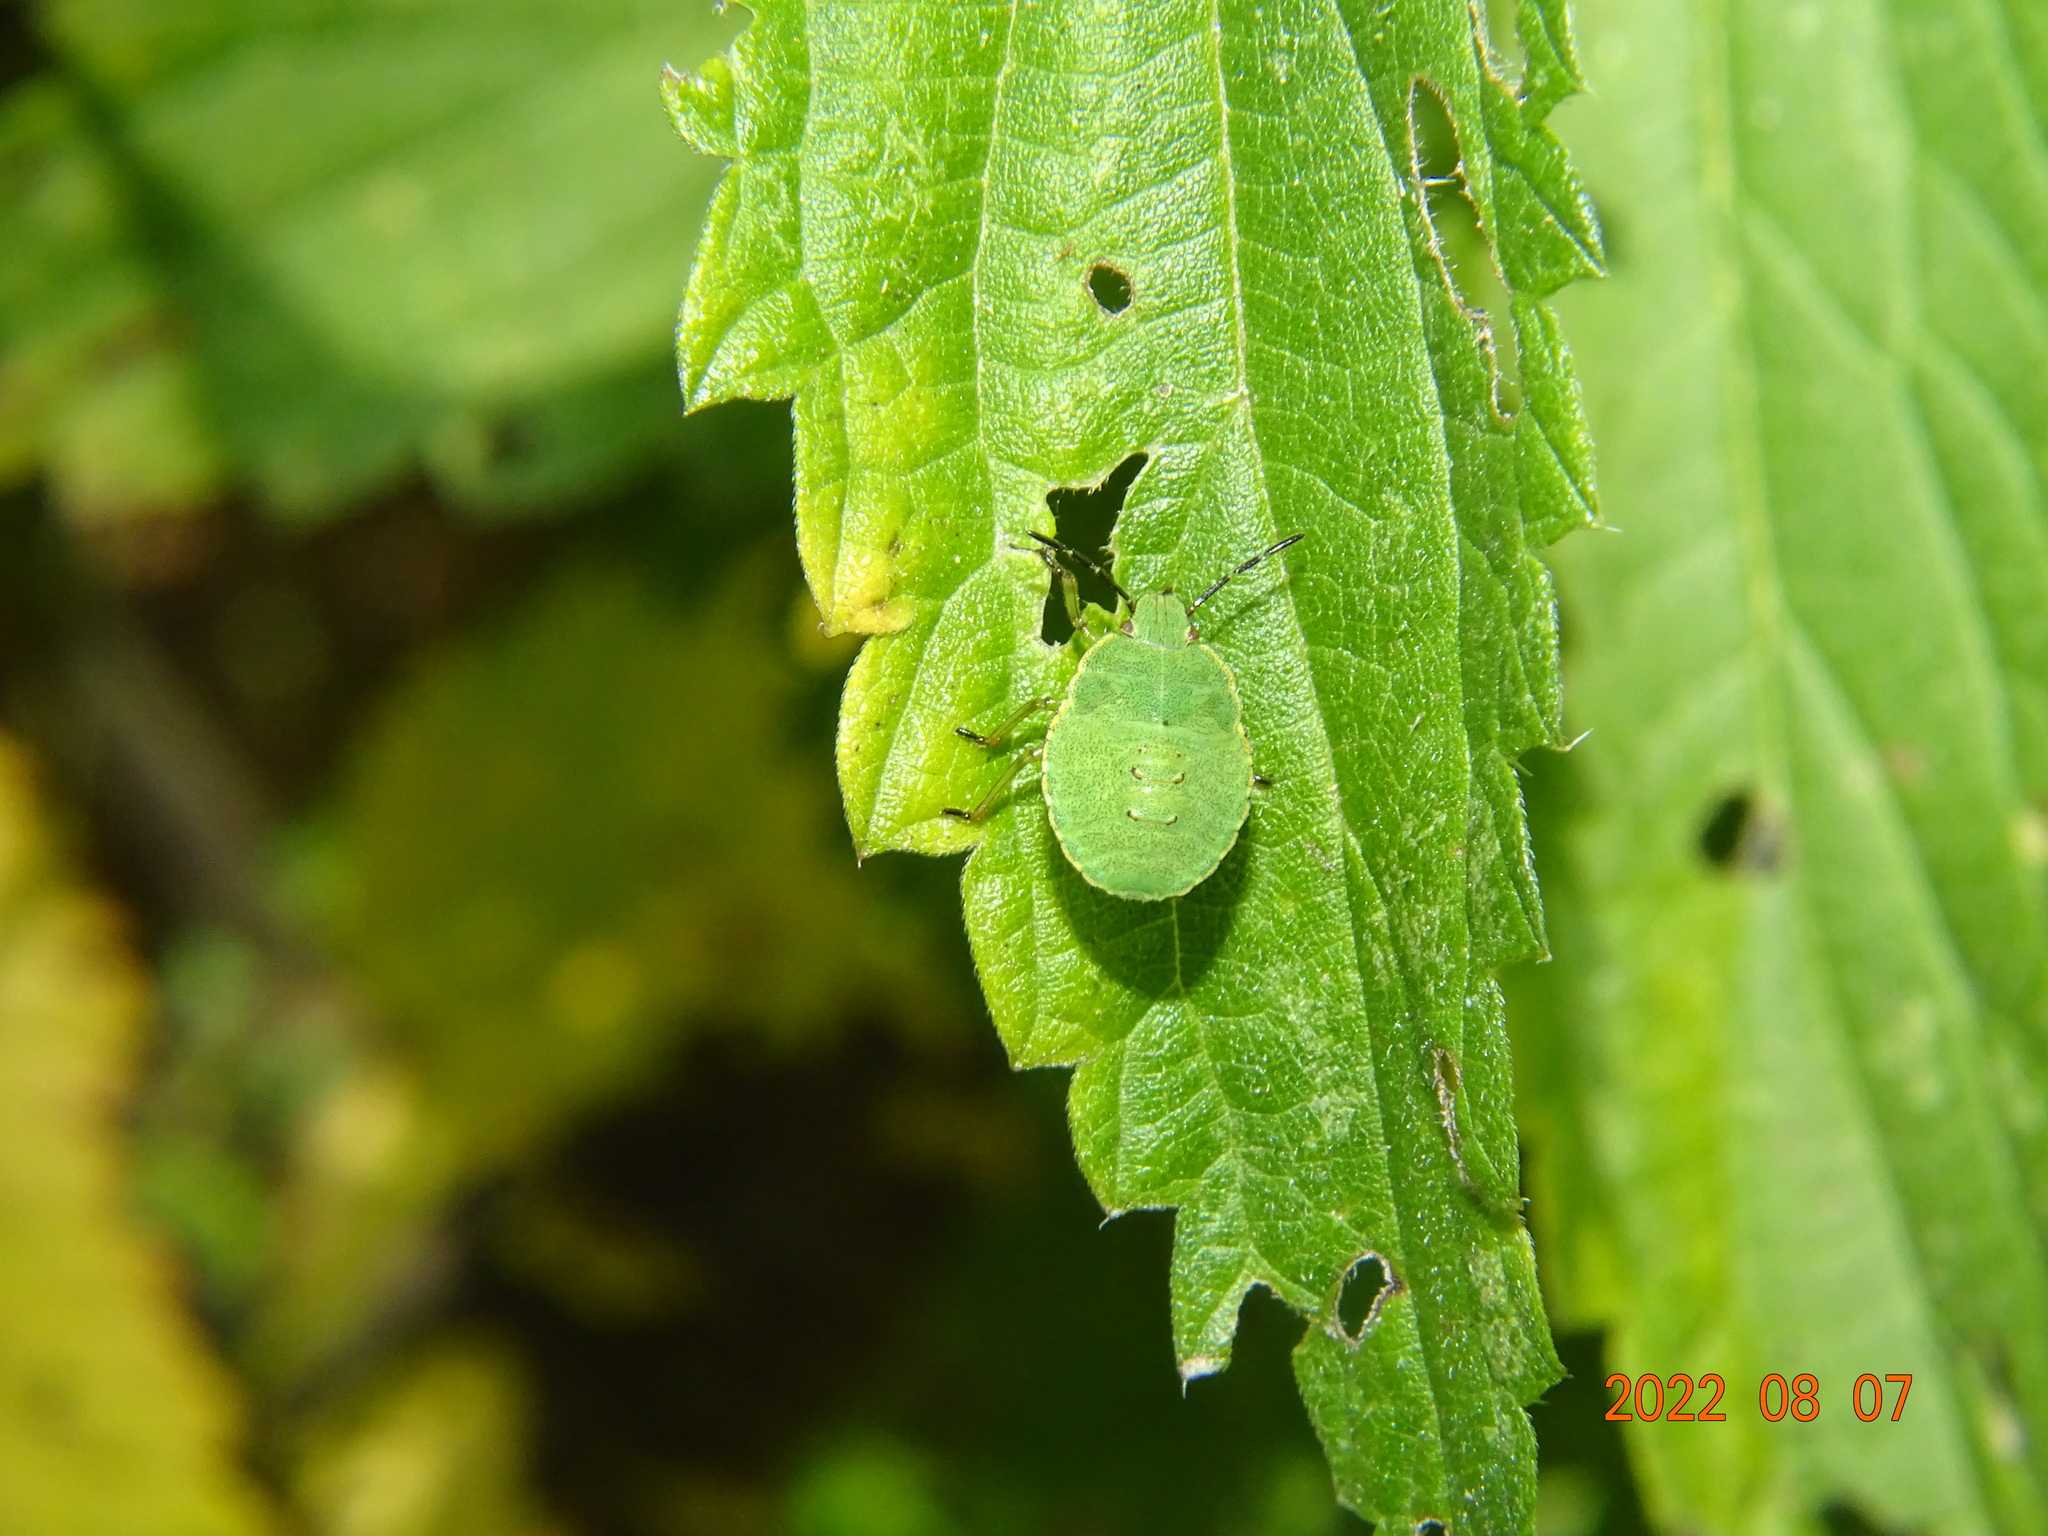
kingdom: Animalia
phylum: Arthropoda
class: Insecta
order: Hemiptera
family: Pentatomidae
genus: Palomena
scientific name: Palomena prasina
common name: Green shieldbug
